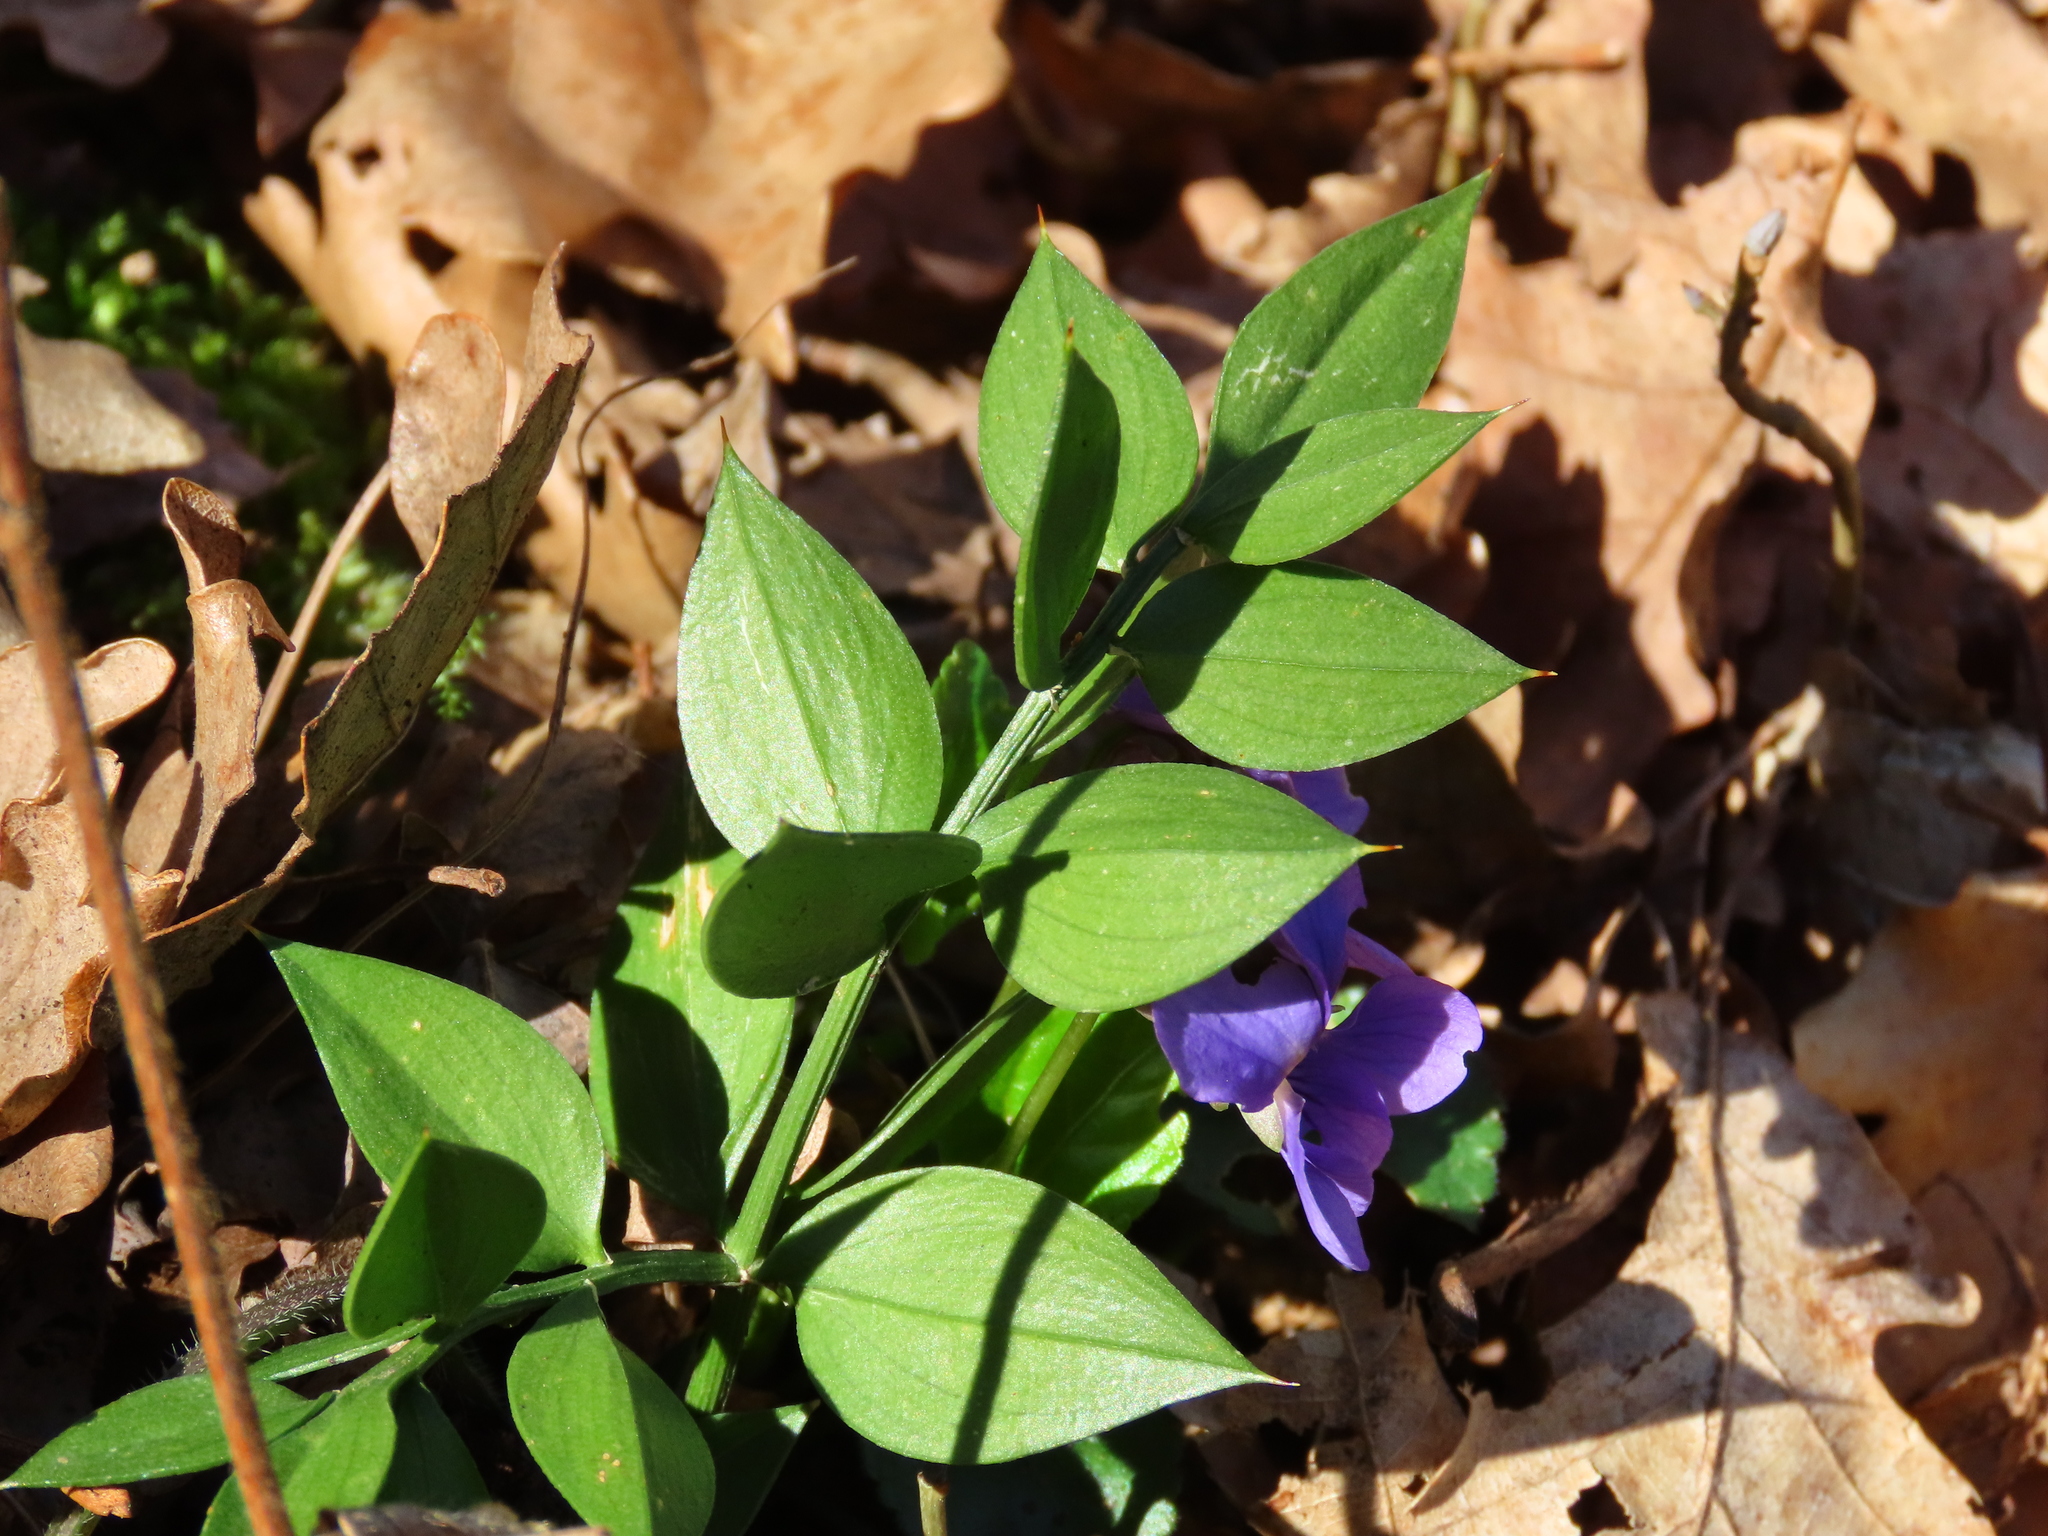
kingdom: Plantae
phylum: Tracheophyta
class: Liliopsida
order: Asparagales
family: Asparagaceae
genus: Ruscus
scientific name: Ruscus aculeatus
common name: Butcher's-broom
